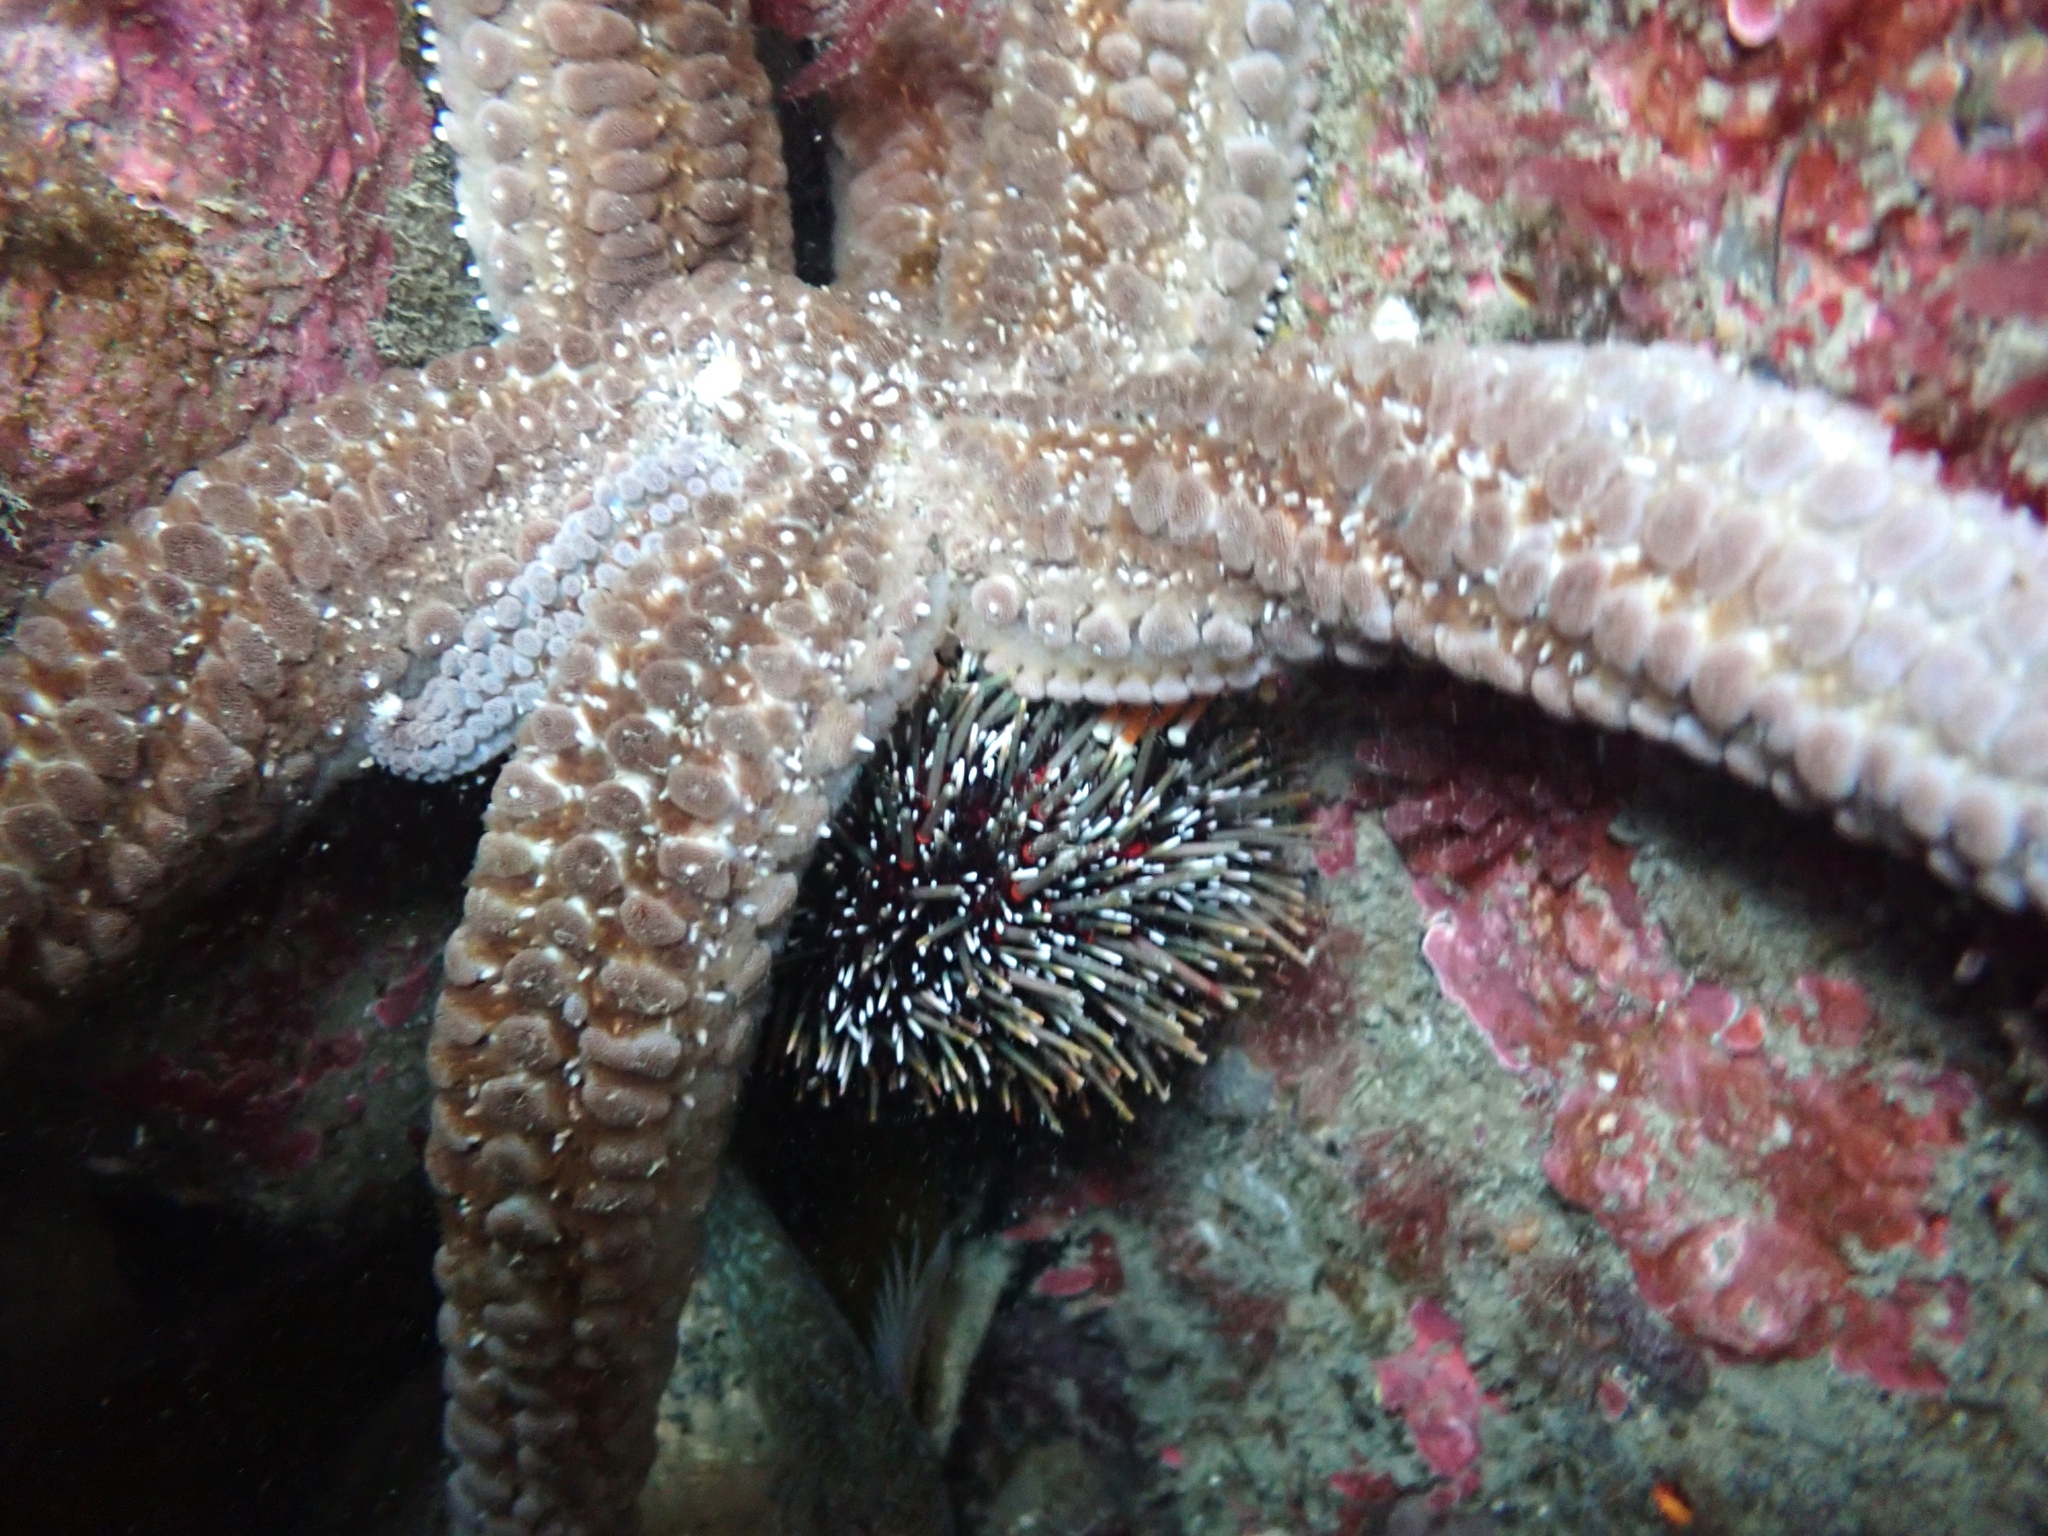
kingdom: Animalia
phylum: Echinodermata
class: Asteroidea
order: Forcipulatida
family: Asteriidae
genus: Astrostole
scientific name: Astrostole scabra
